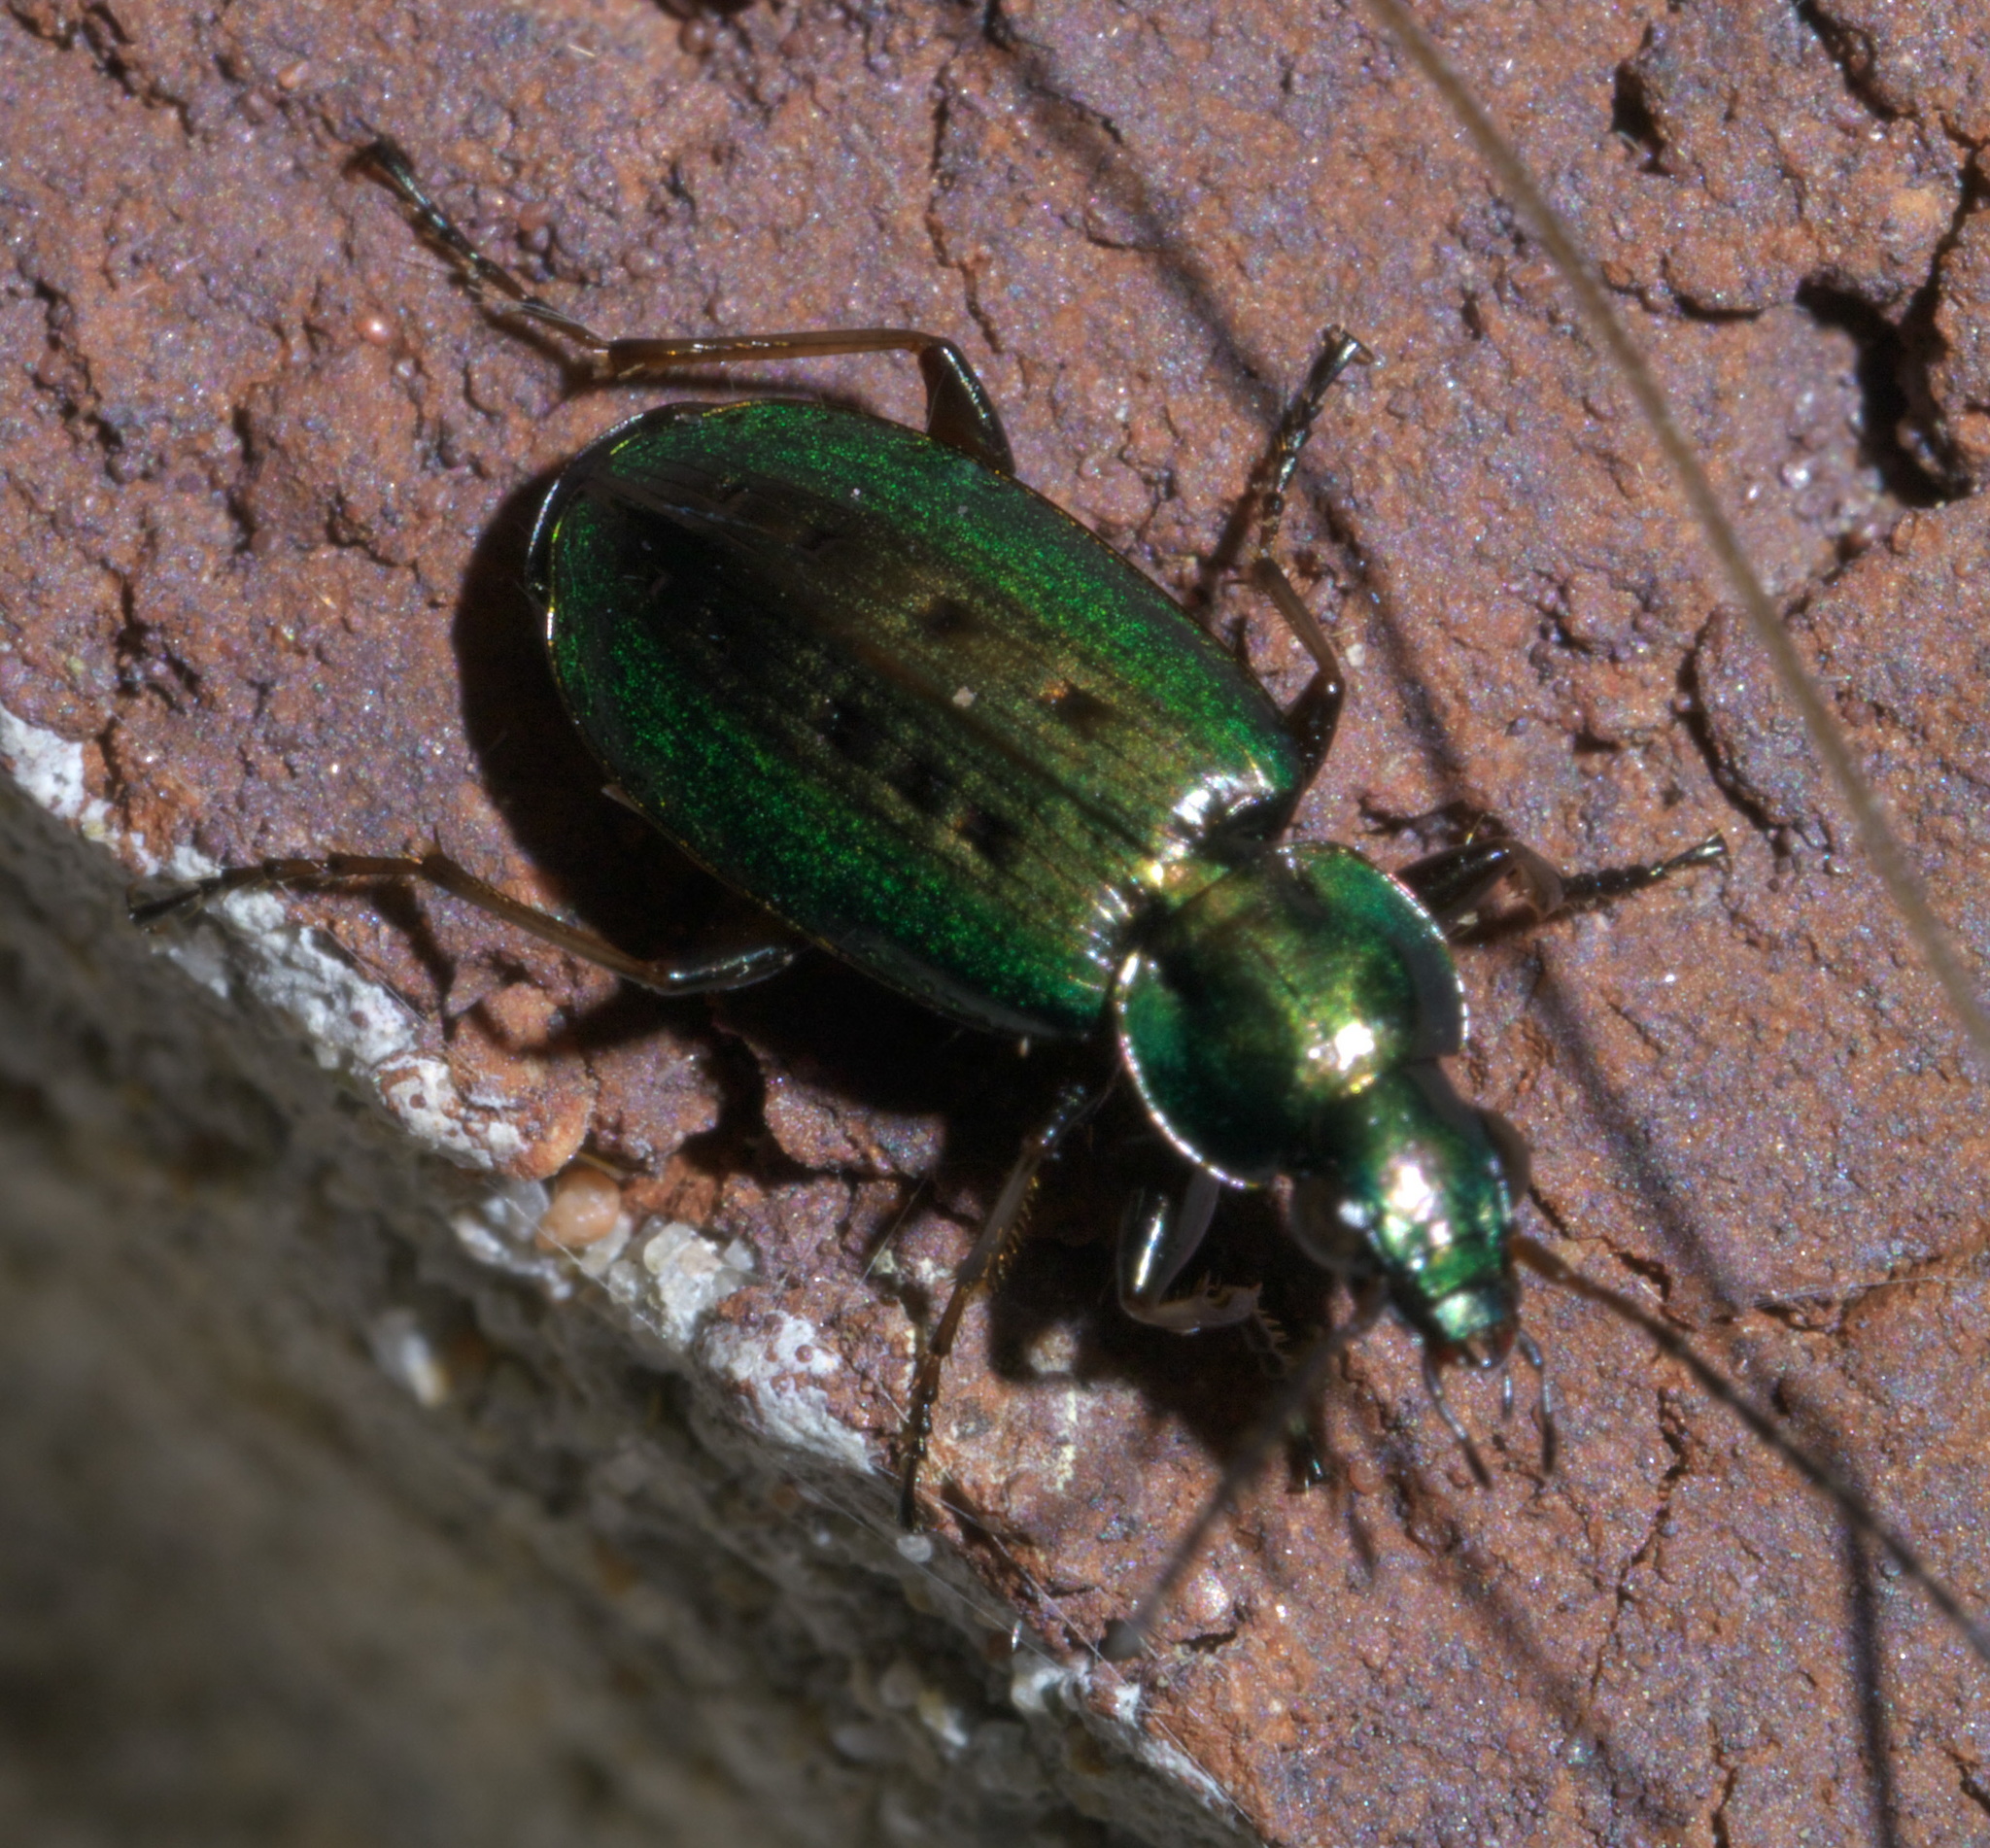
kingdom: Animalia
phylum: Arthropoda
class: Insecta
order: Coleoptera
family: Carabidae
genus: Agonum
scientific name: Agonum octopunctatum
